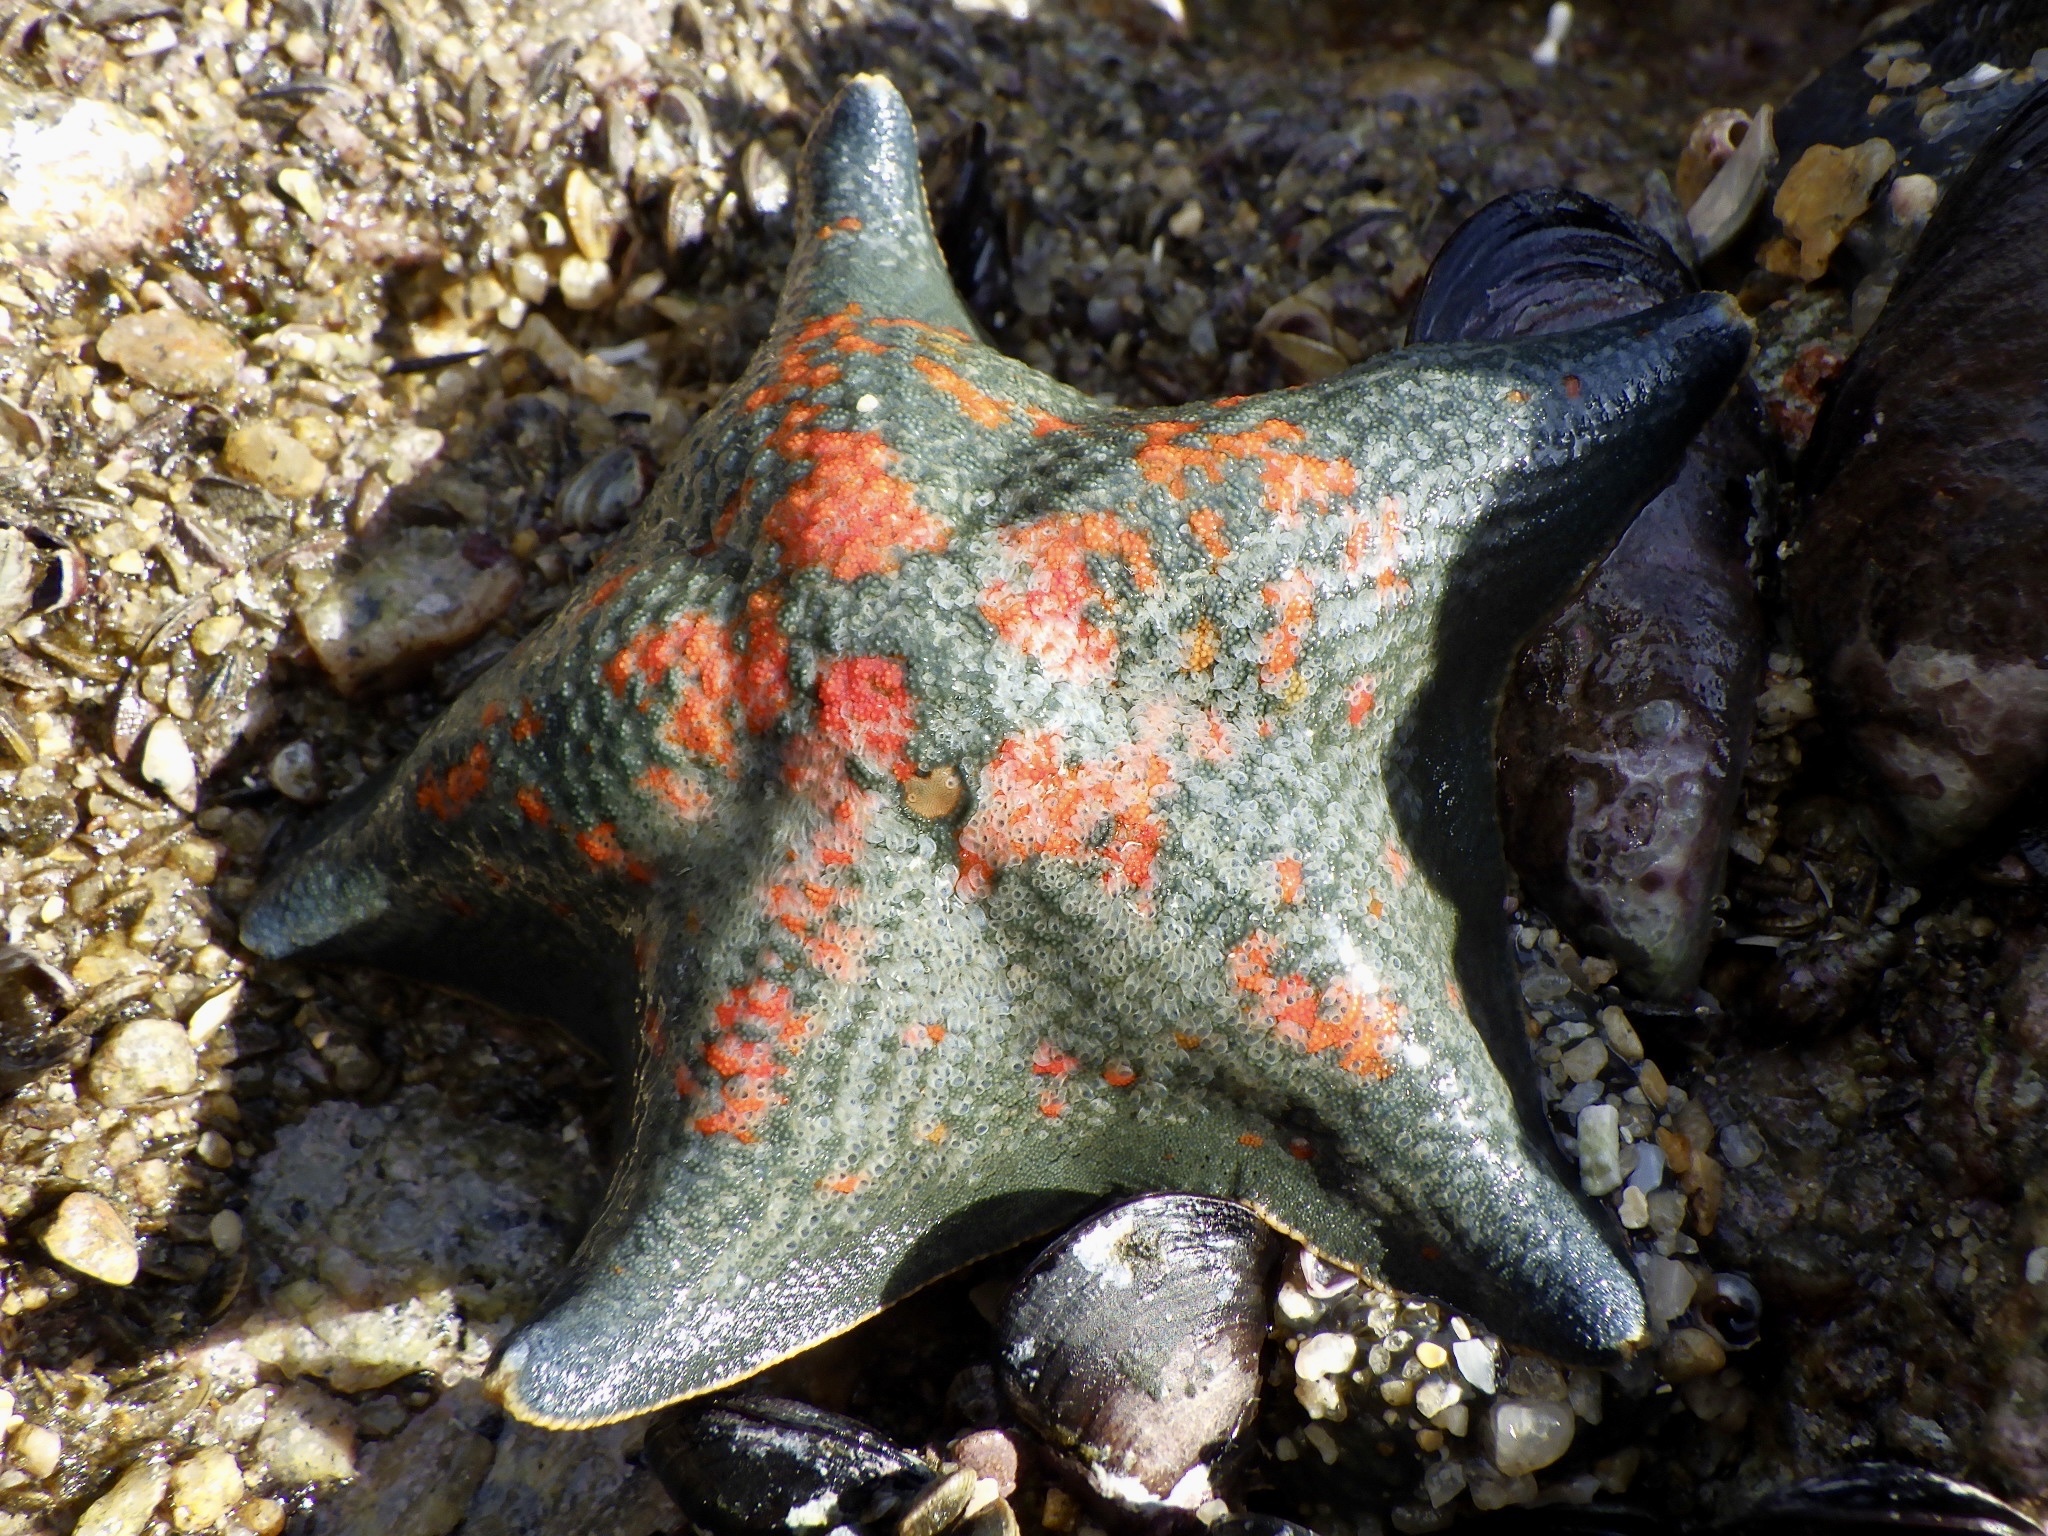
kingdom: Animalia
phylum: Echinodermata
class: Asteroidea
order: Valvatida
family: Asterinidae
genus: Patiria
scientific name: Patiria pectinifera
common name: Blue bat star
